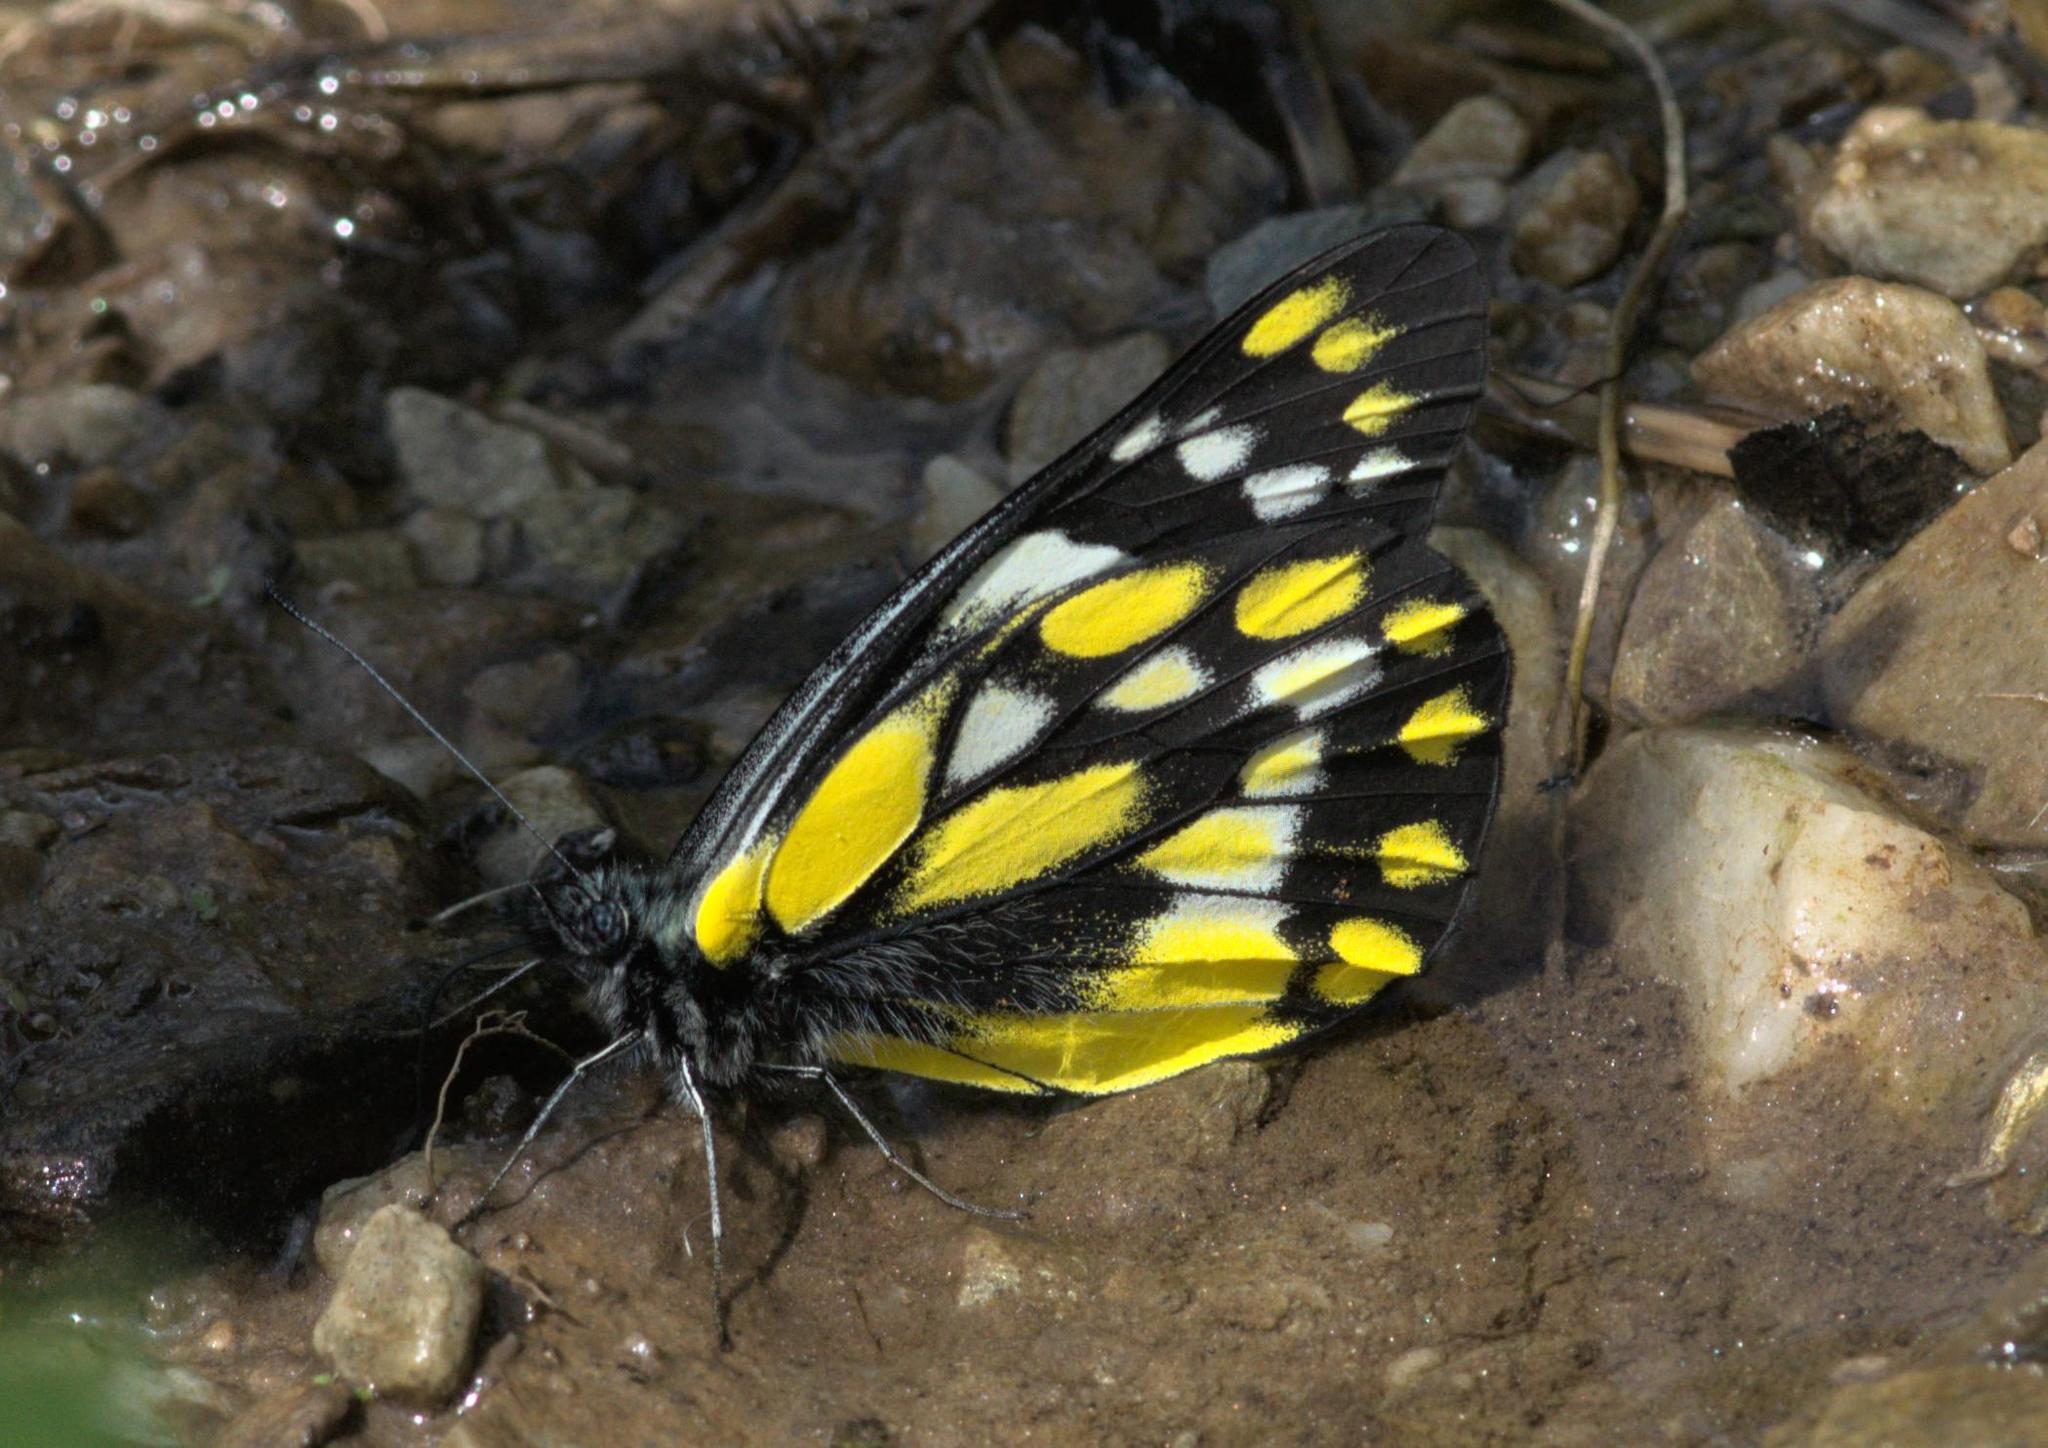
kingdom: Animalia
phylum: Arthropoda
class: Insecta
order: Lepidoptera
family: Pieridae
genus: Delias
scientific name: Delias belladonna
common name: Hill jezebel
